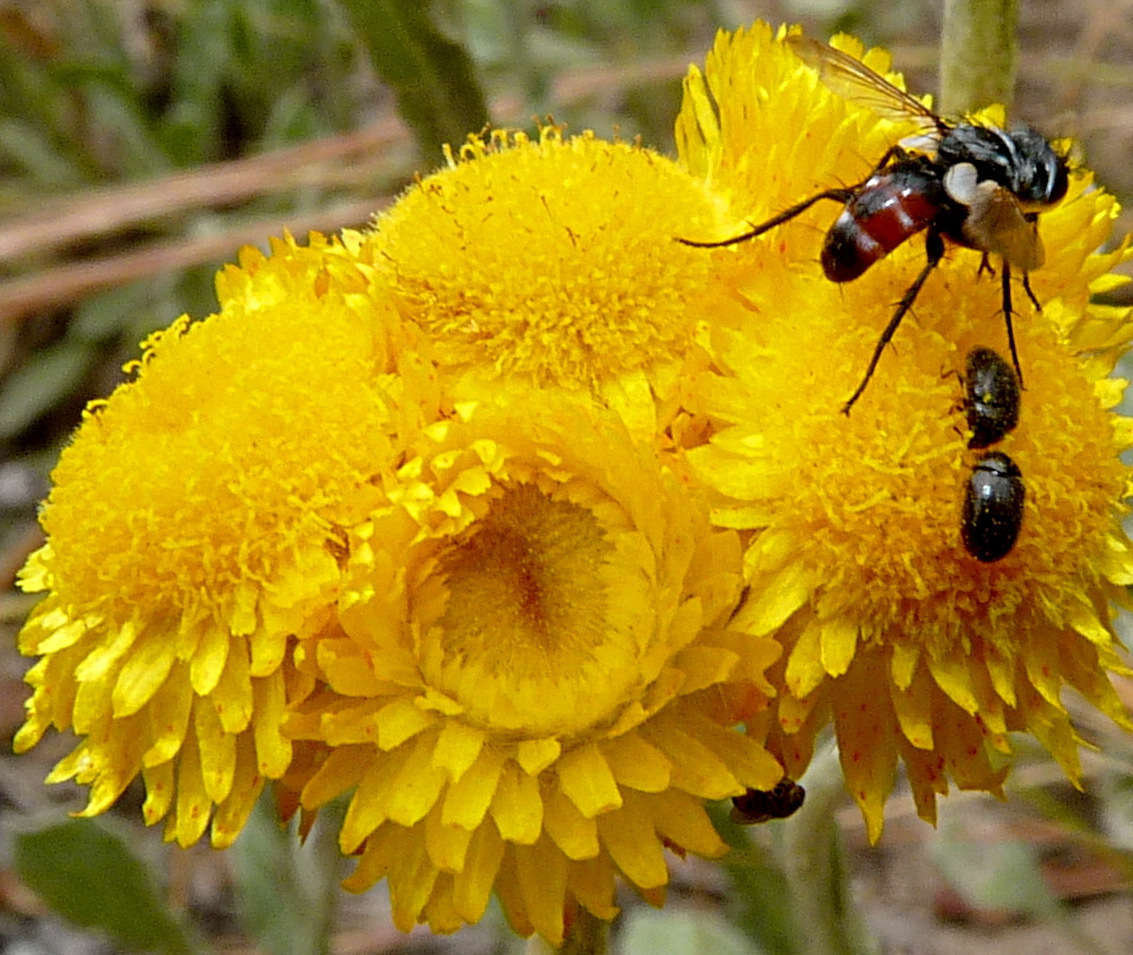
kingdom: Plantae
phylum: Tracheophyta
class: Magnoliopsida
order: Asterales
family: Asteraceae
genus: Chrysocephalum
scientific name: Chrysocephalum apiculatum
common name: Common everlasting
